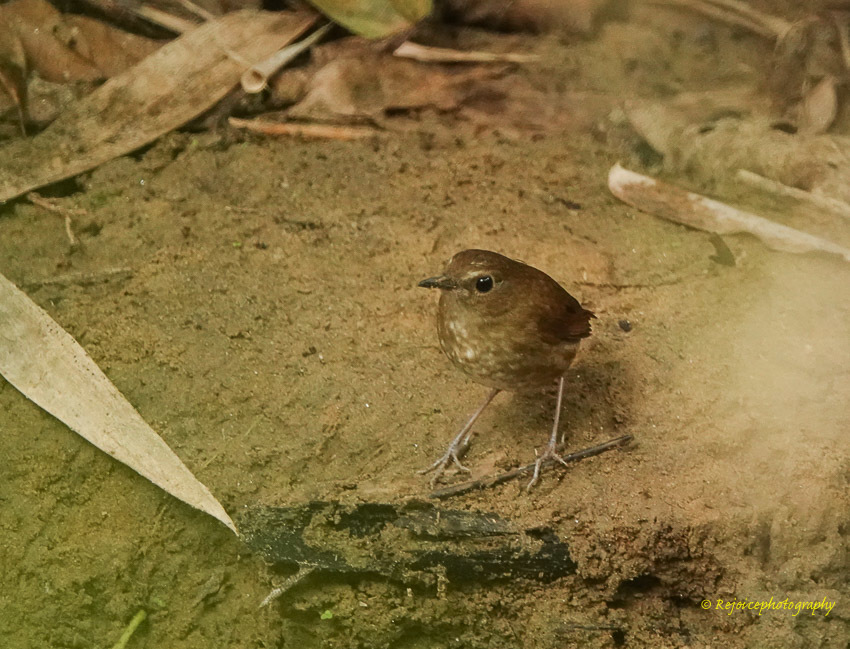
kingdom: Animalia
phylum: Chordata
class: Aves
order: Passeriformes
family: Muscicapidae
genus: Brachypteryx
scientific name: Brachypteryx leucophris
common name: Lesser shortwing
